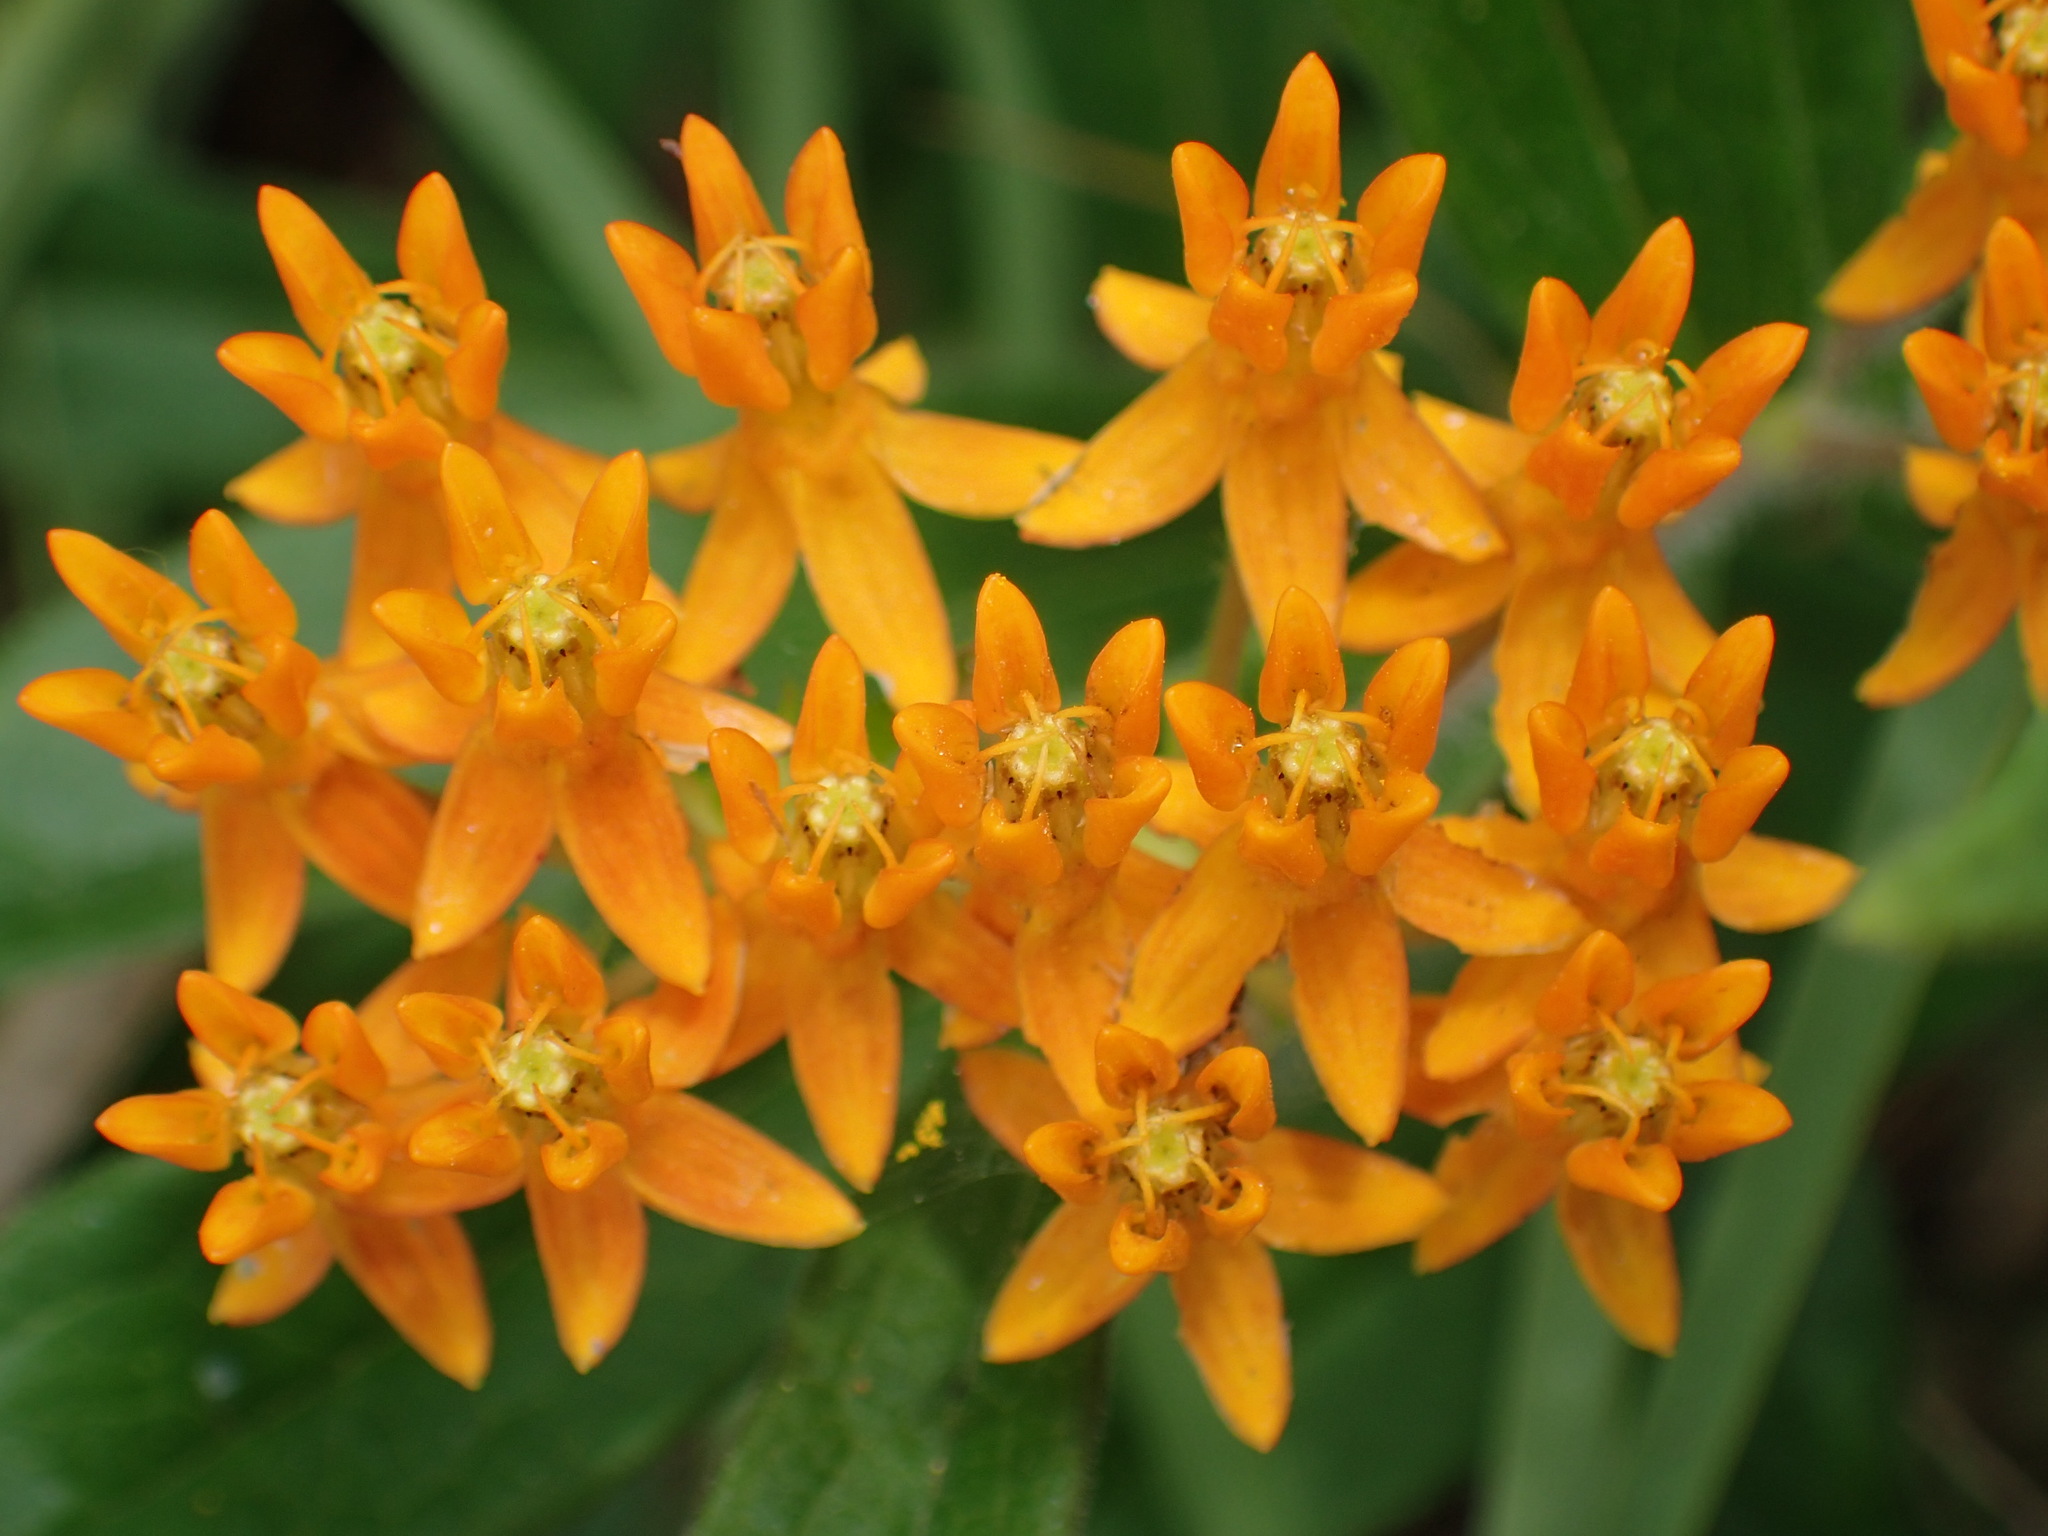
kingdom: Plantae
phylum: Tracheophyta
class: Magnoliopsida
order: Gentianales
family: Apocynaceae
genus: Asclepias
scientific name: Asclepias tuberosa
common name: Butterfly milkweed
